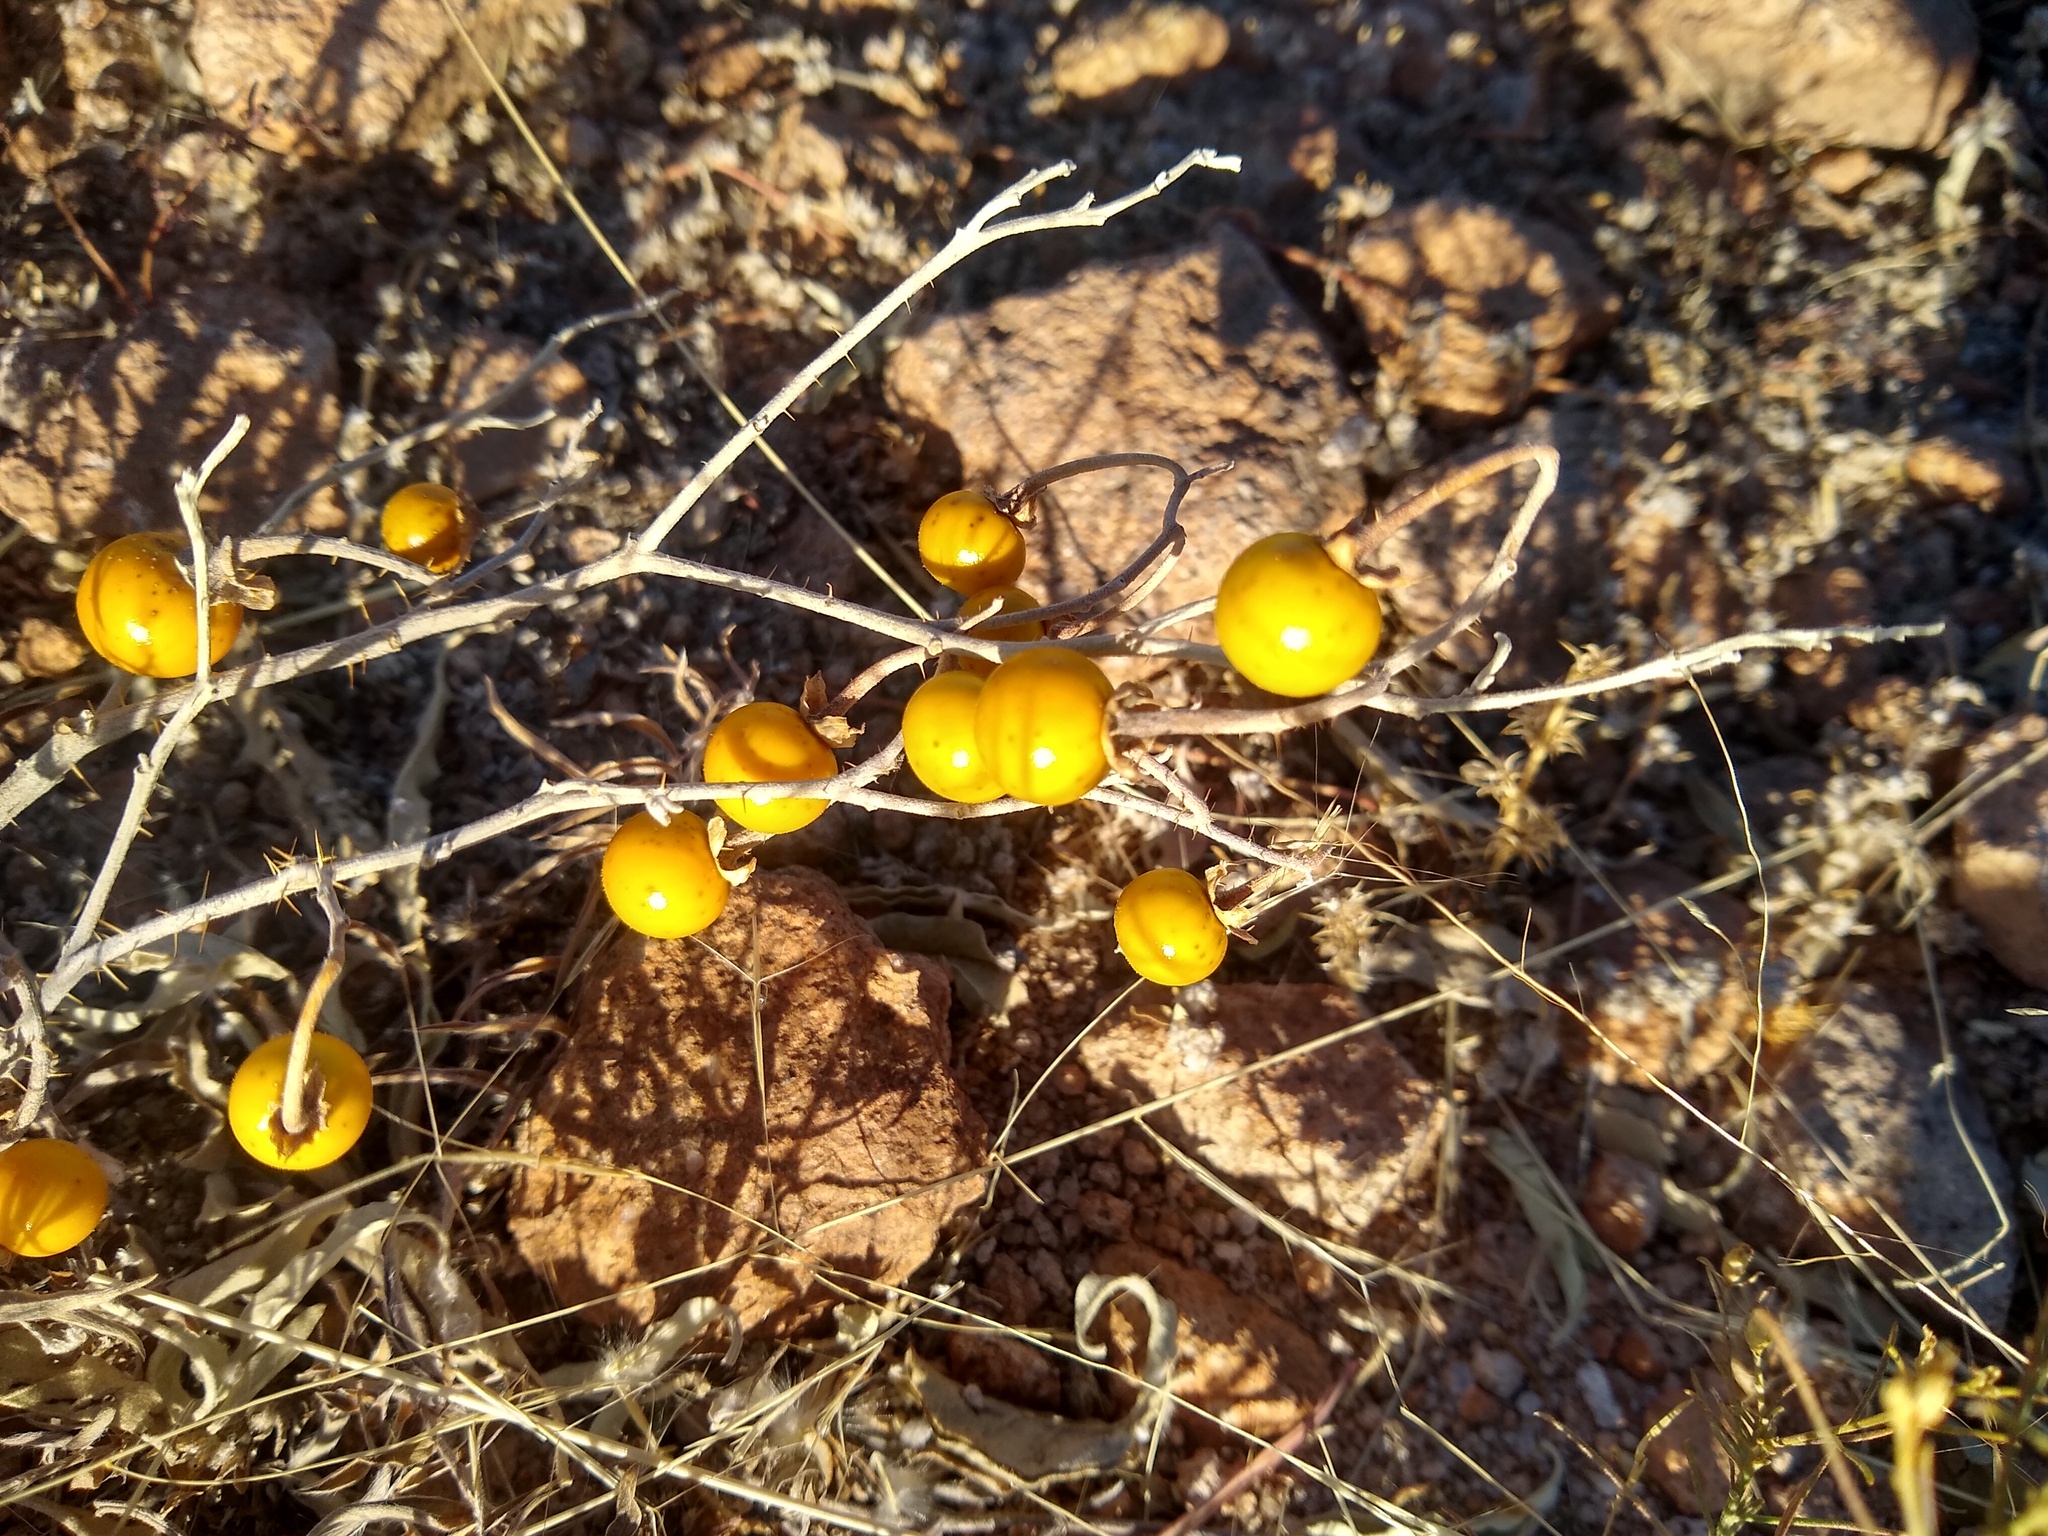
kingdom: Plantae
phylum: Tracheophyta
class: Magnoliopsida
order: Solanales
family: Solanaceae
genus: Solanum
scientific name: Solanum elaeagnifolium
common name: Silverleaf nightshade
